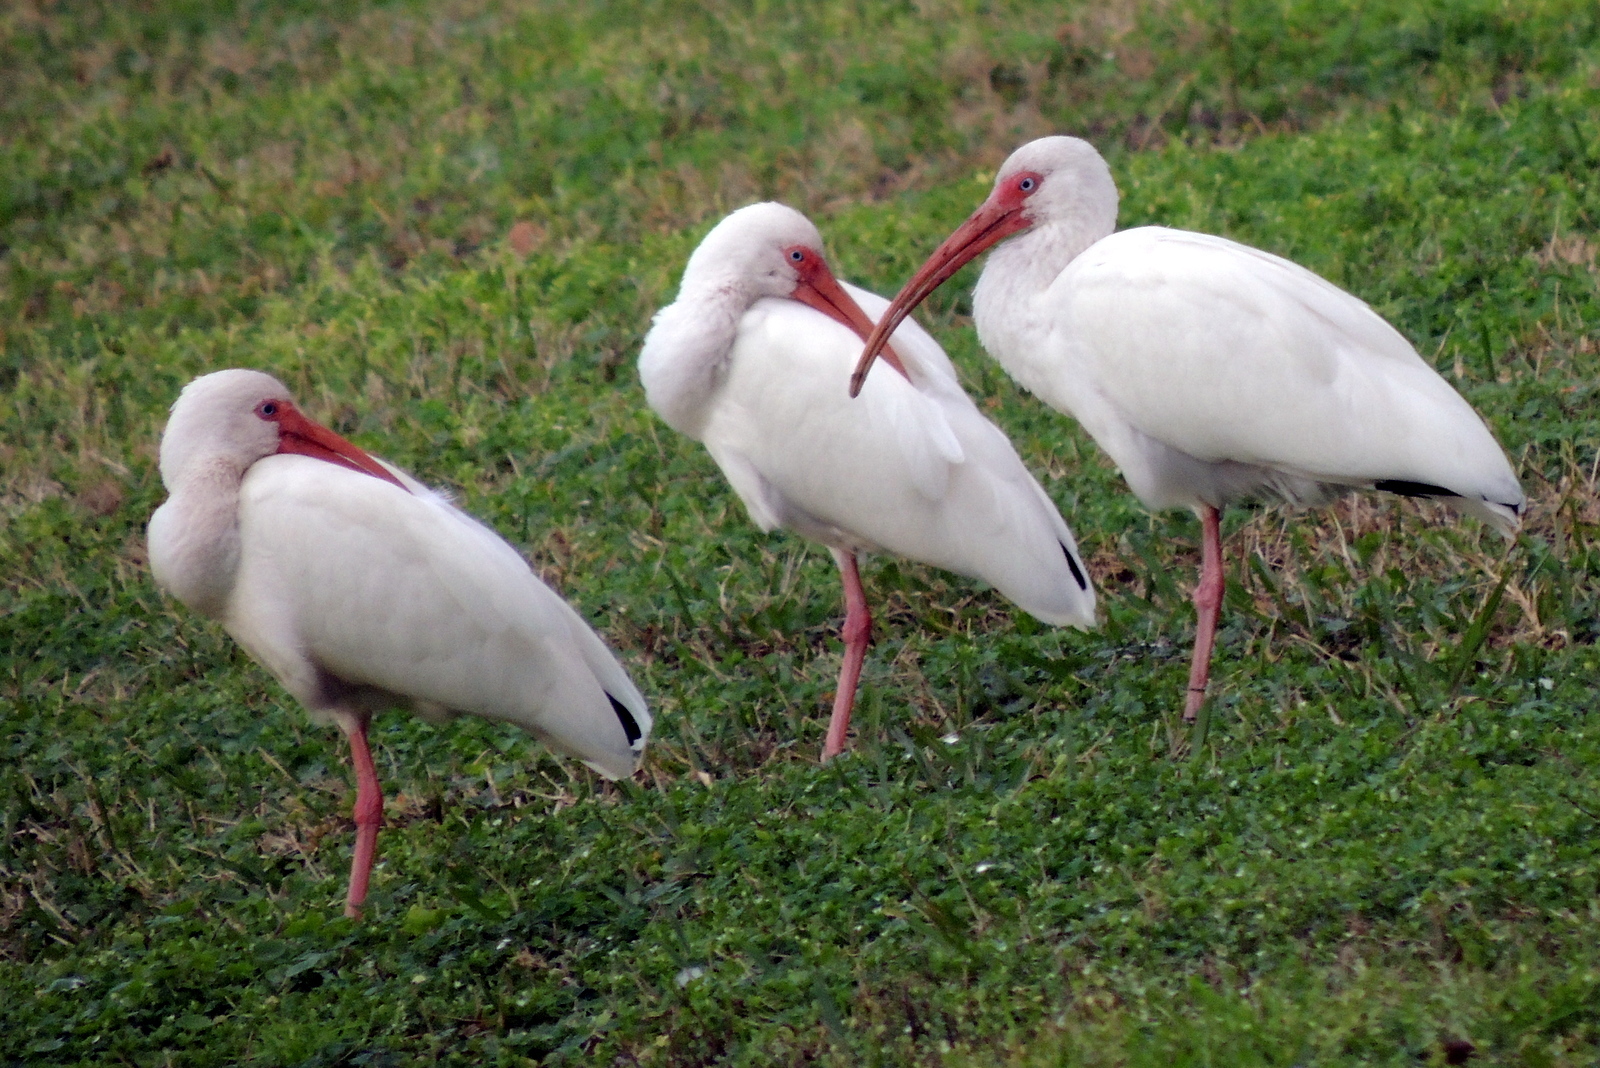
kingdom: Animalia
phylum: Chordata
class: Aves
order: Pelecaniformes
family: Threskiornithidae
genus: Eudocimus
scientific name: Eudocimus albus
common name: White ibis
